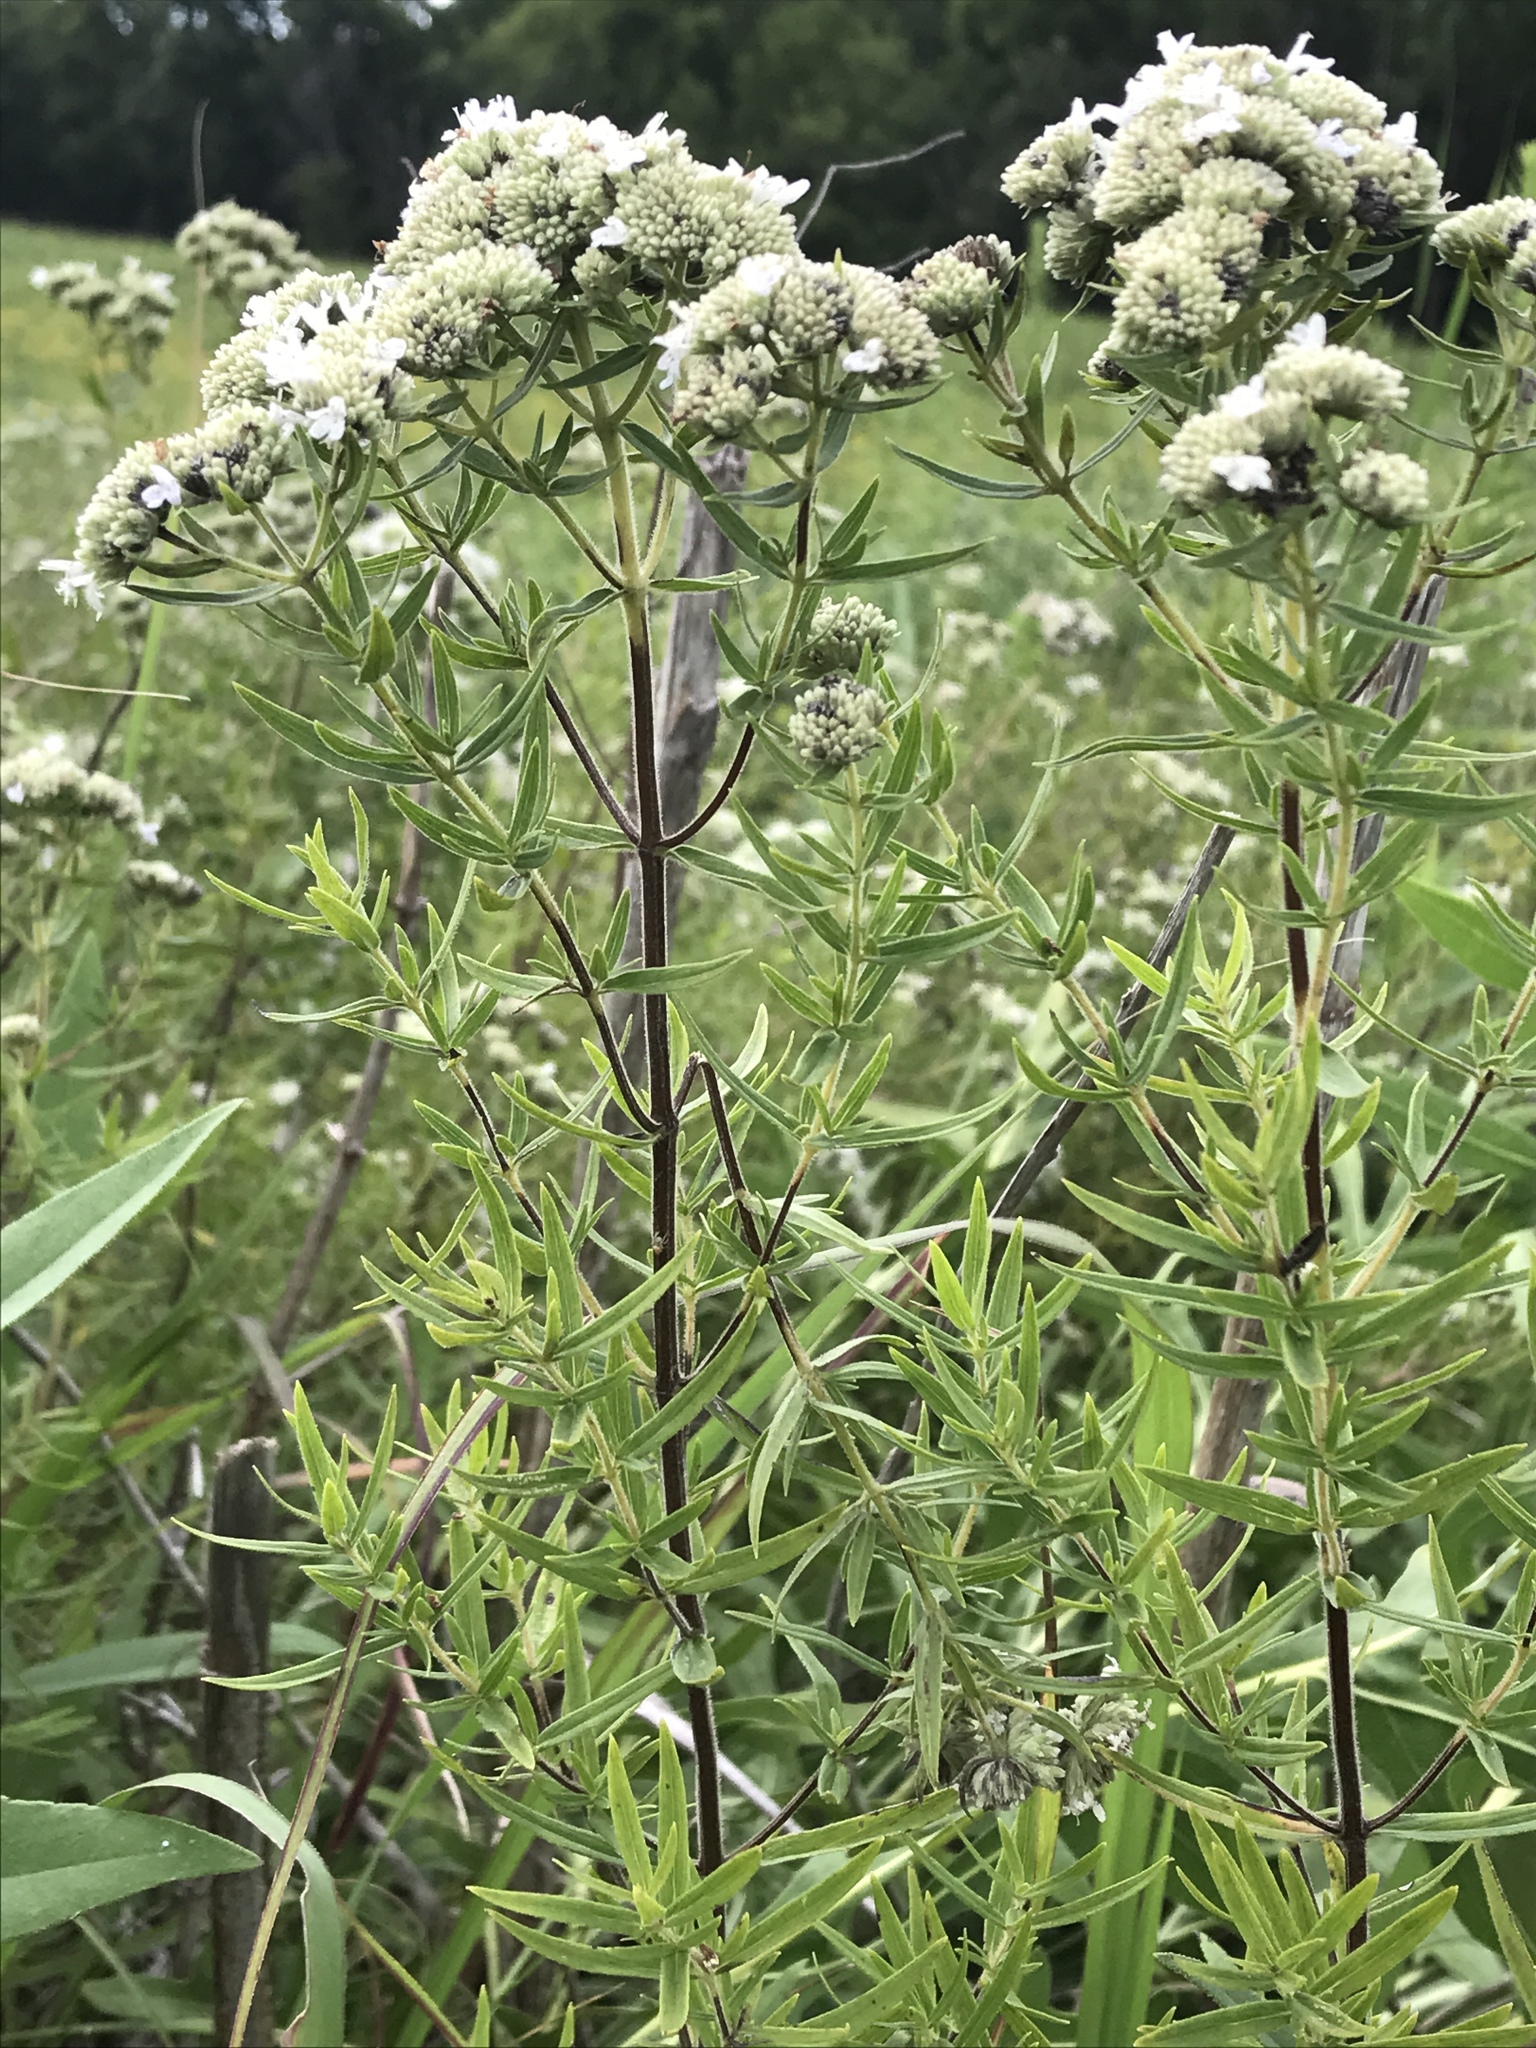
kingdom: Plantae
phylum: Tracheophyta
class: Magnoliopsida
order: Lamiales
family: Lamiaceae
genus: Pycnanthemum
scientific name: Pycnanthemum virginianum
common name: Virginia mountain-mint
